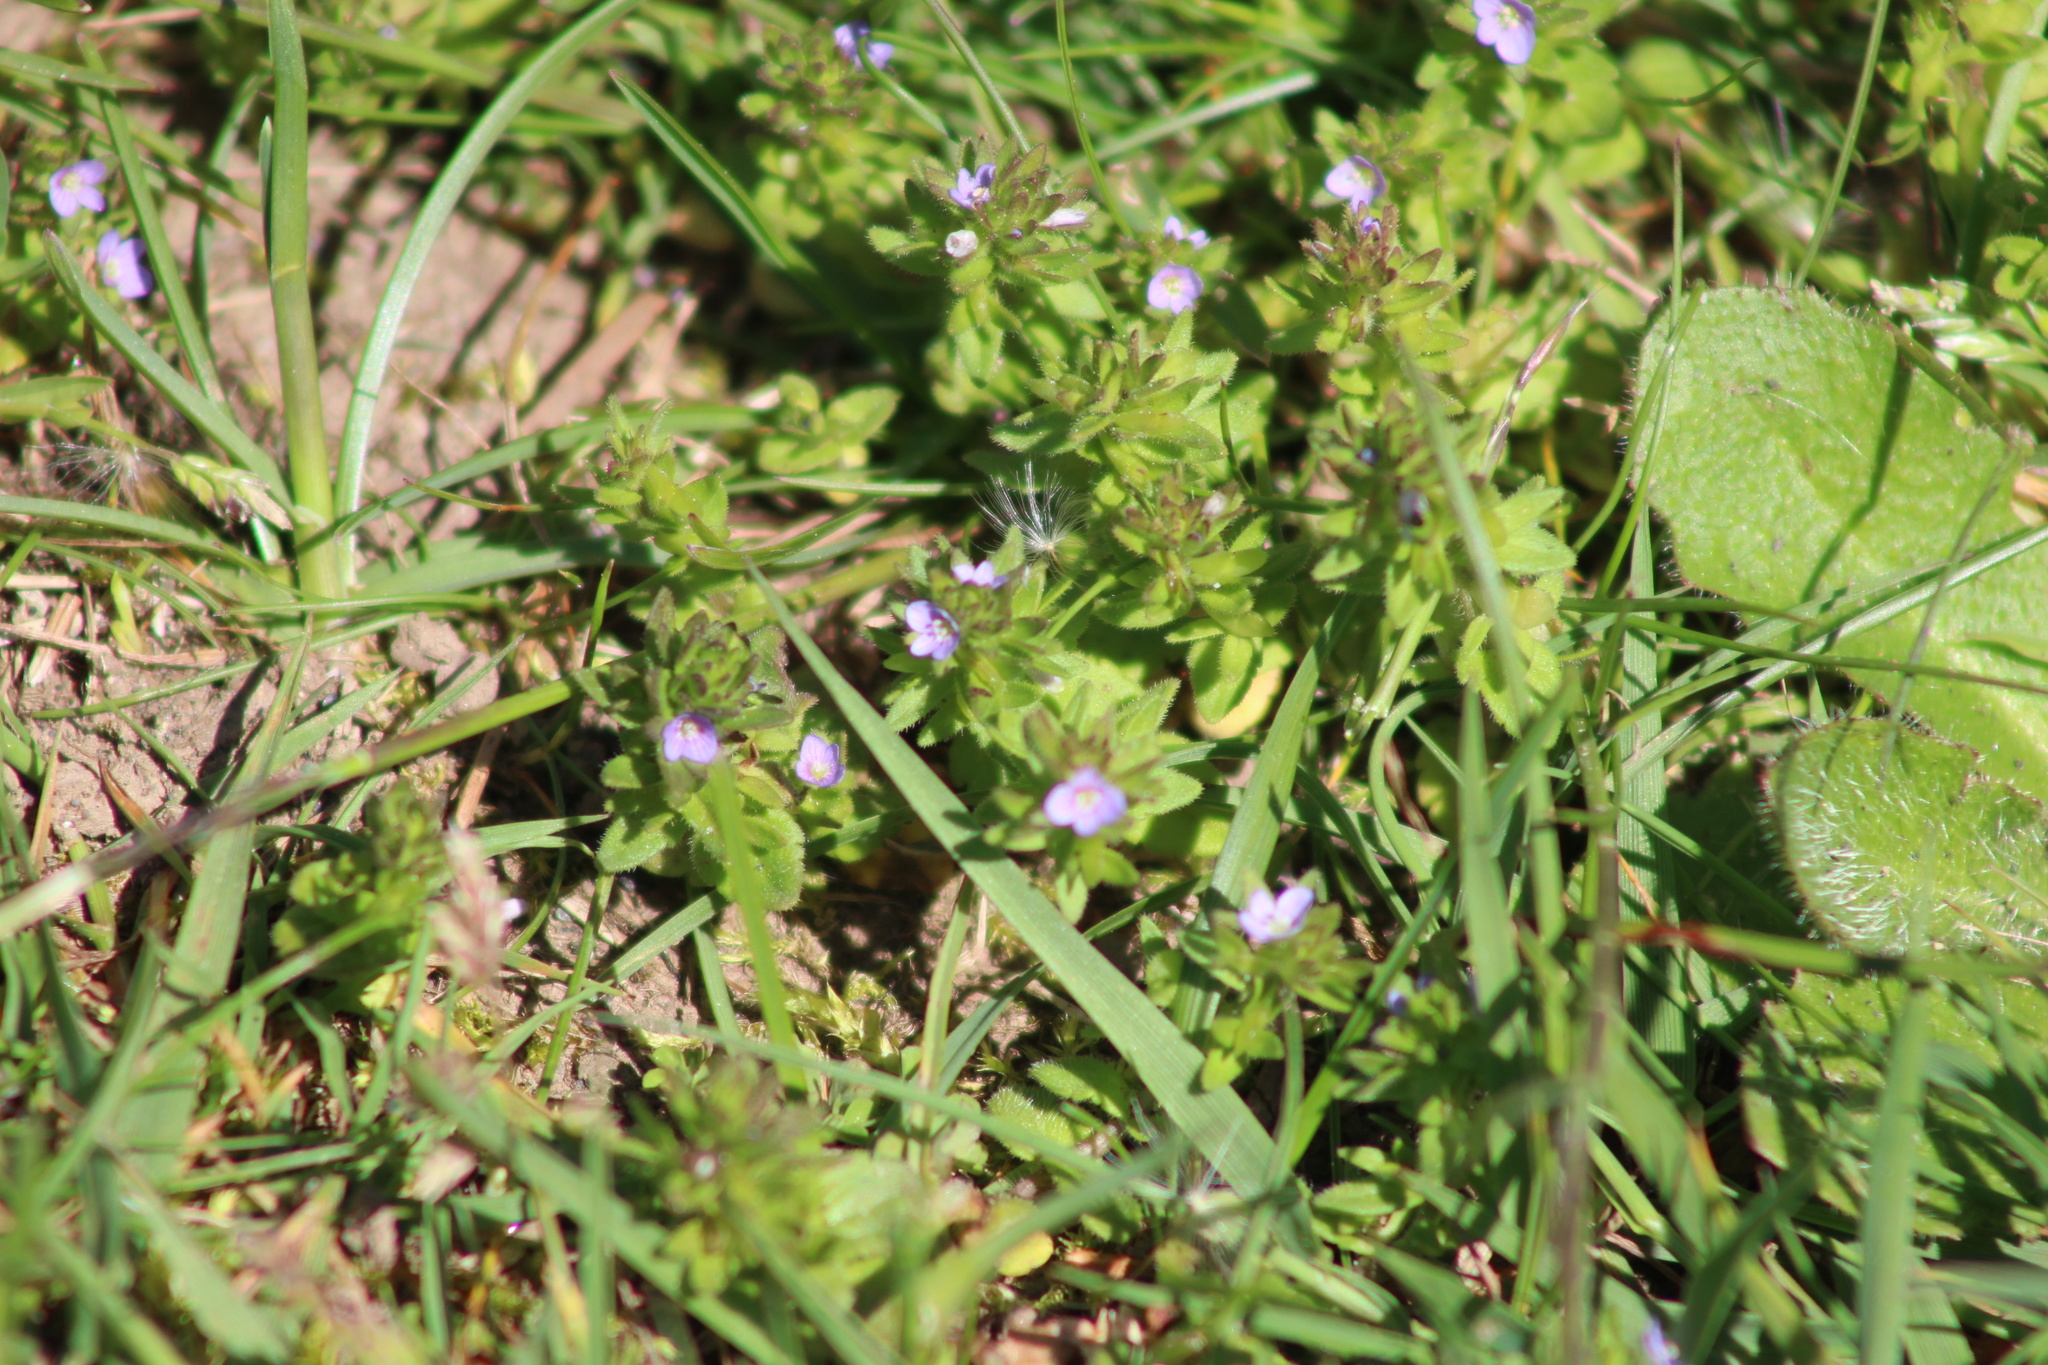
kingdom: Plantae
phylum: Tracheophyta
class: Magnoliopsida
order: Lamiales
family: Plantaginaceae
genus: Veronica
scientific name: Veronica arvensis
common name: Corn speedwell
